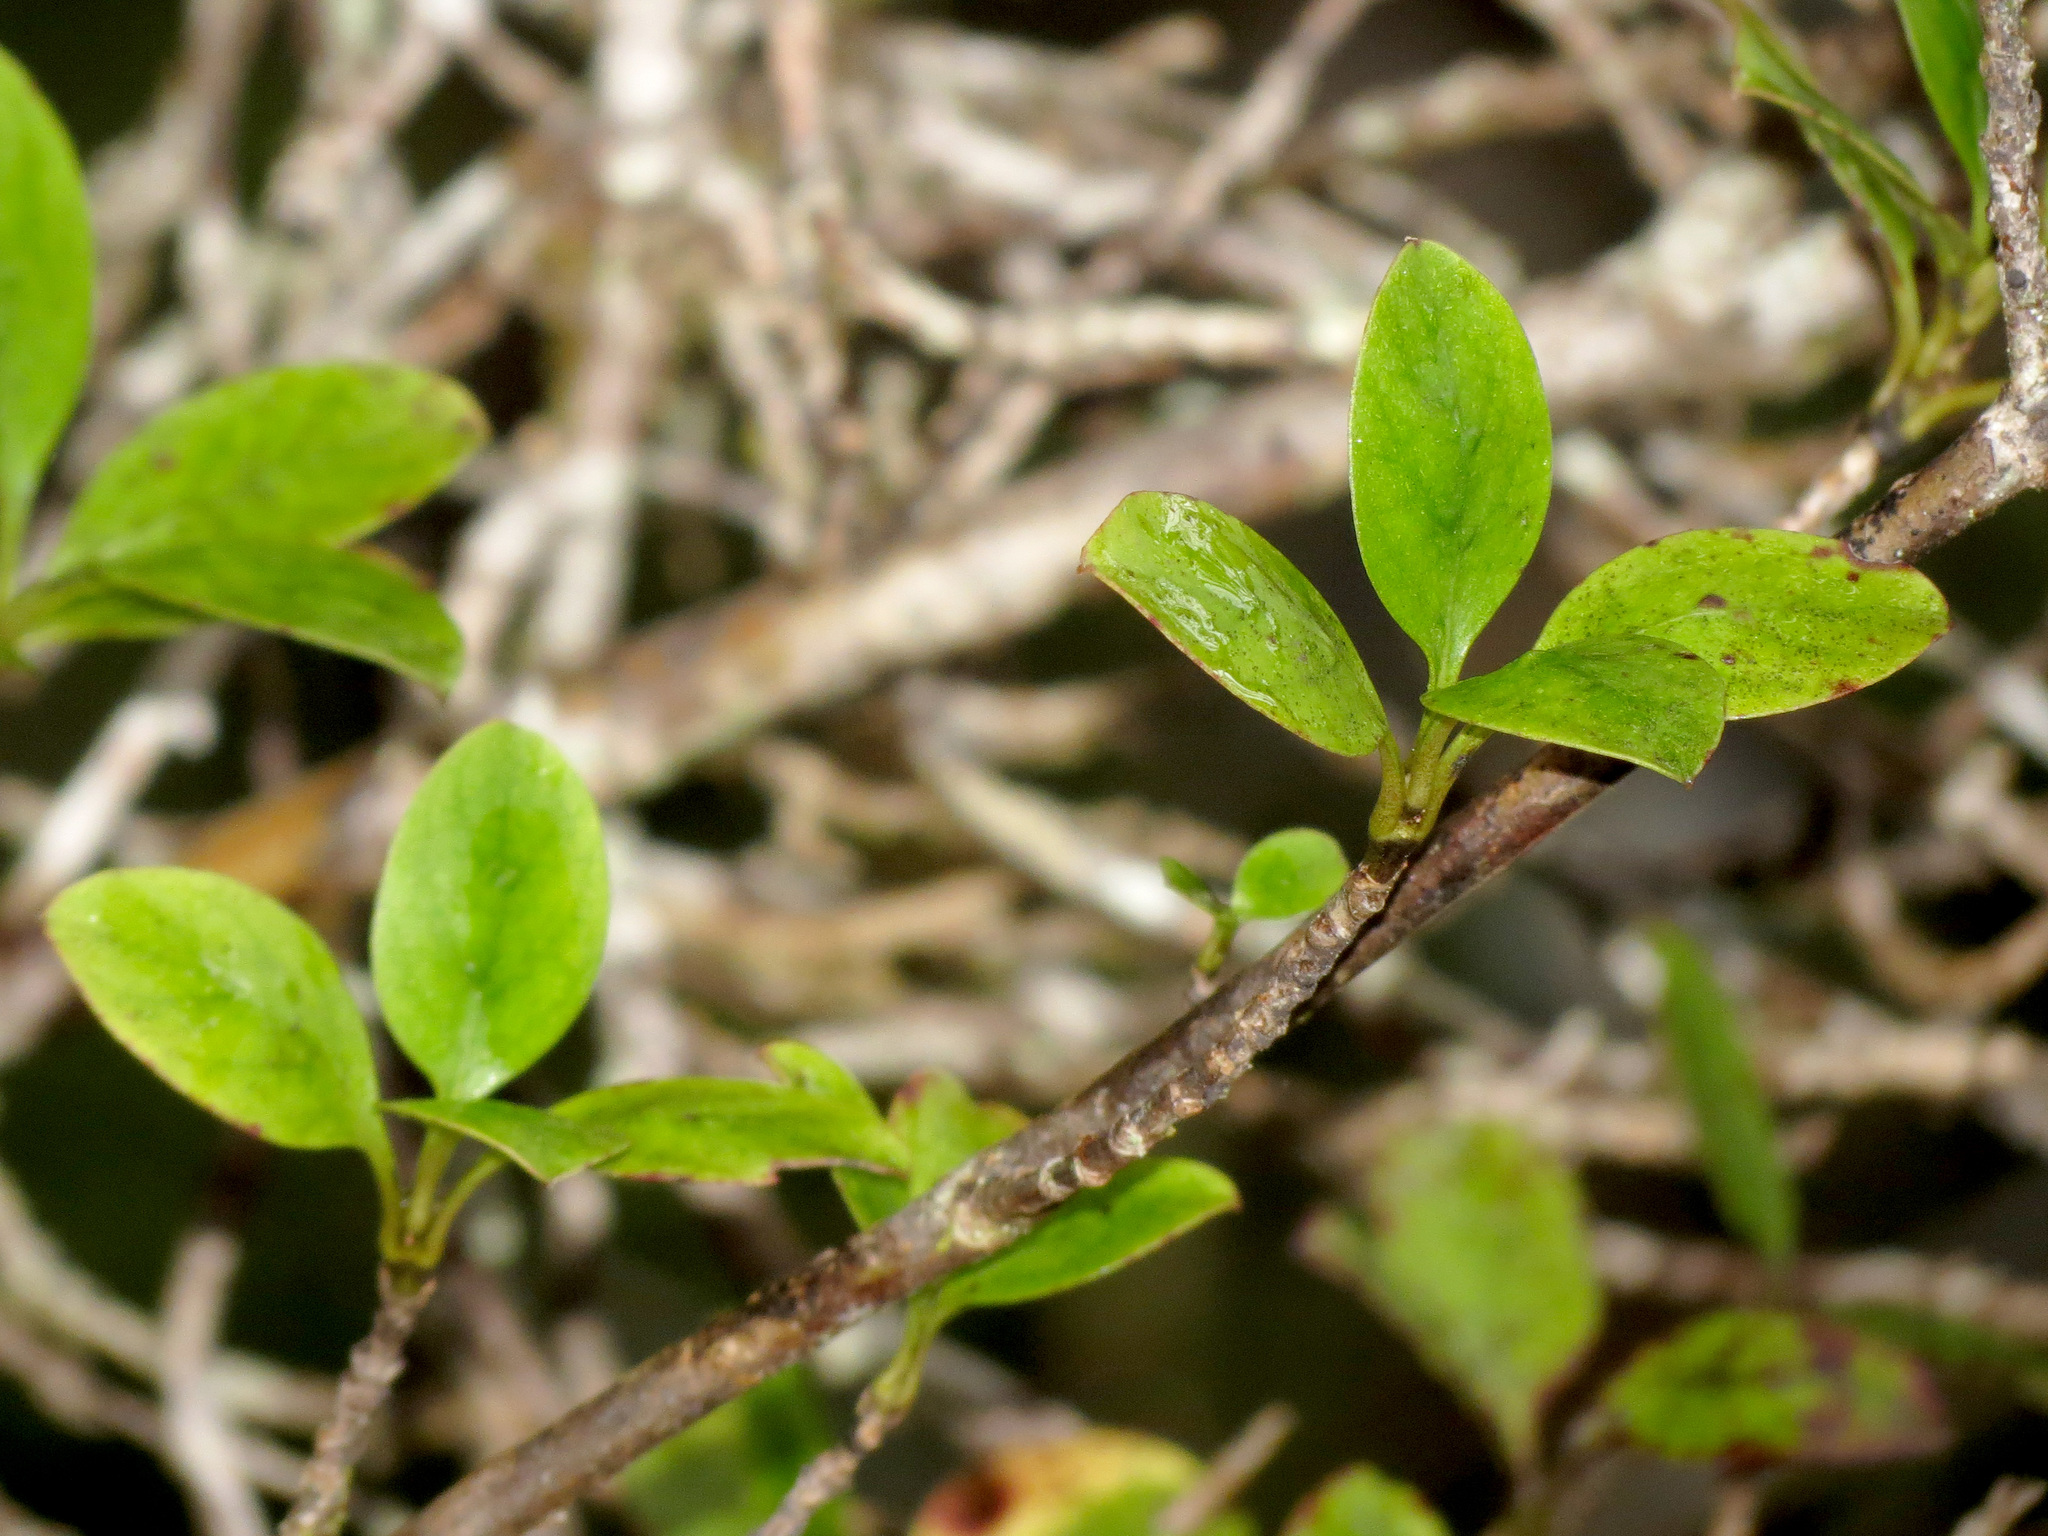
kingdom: Plantae
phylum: Tracheophyta
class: Magnoliopsida
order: Gentianales
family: Rubiaceae
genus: Coprosma
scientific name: Coprosma foetidissima
